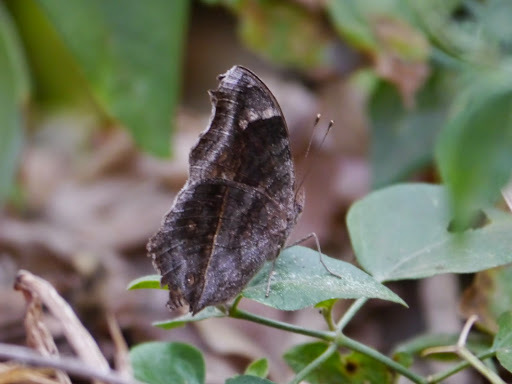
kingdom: Animalia
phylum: Arthropoda
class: Insecta
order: Lepidoptera
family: Nymphalidae
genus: Junonia
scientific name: Junonia natalica
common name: Brown pansy
